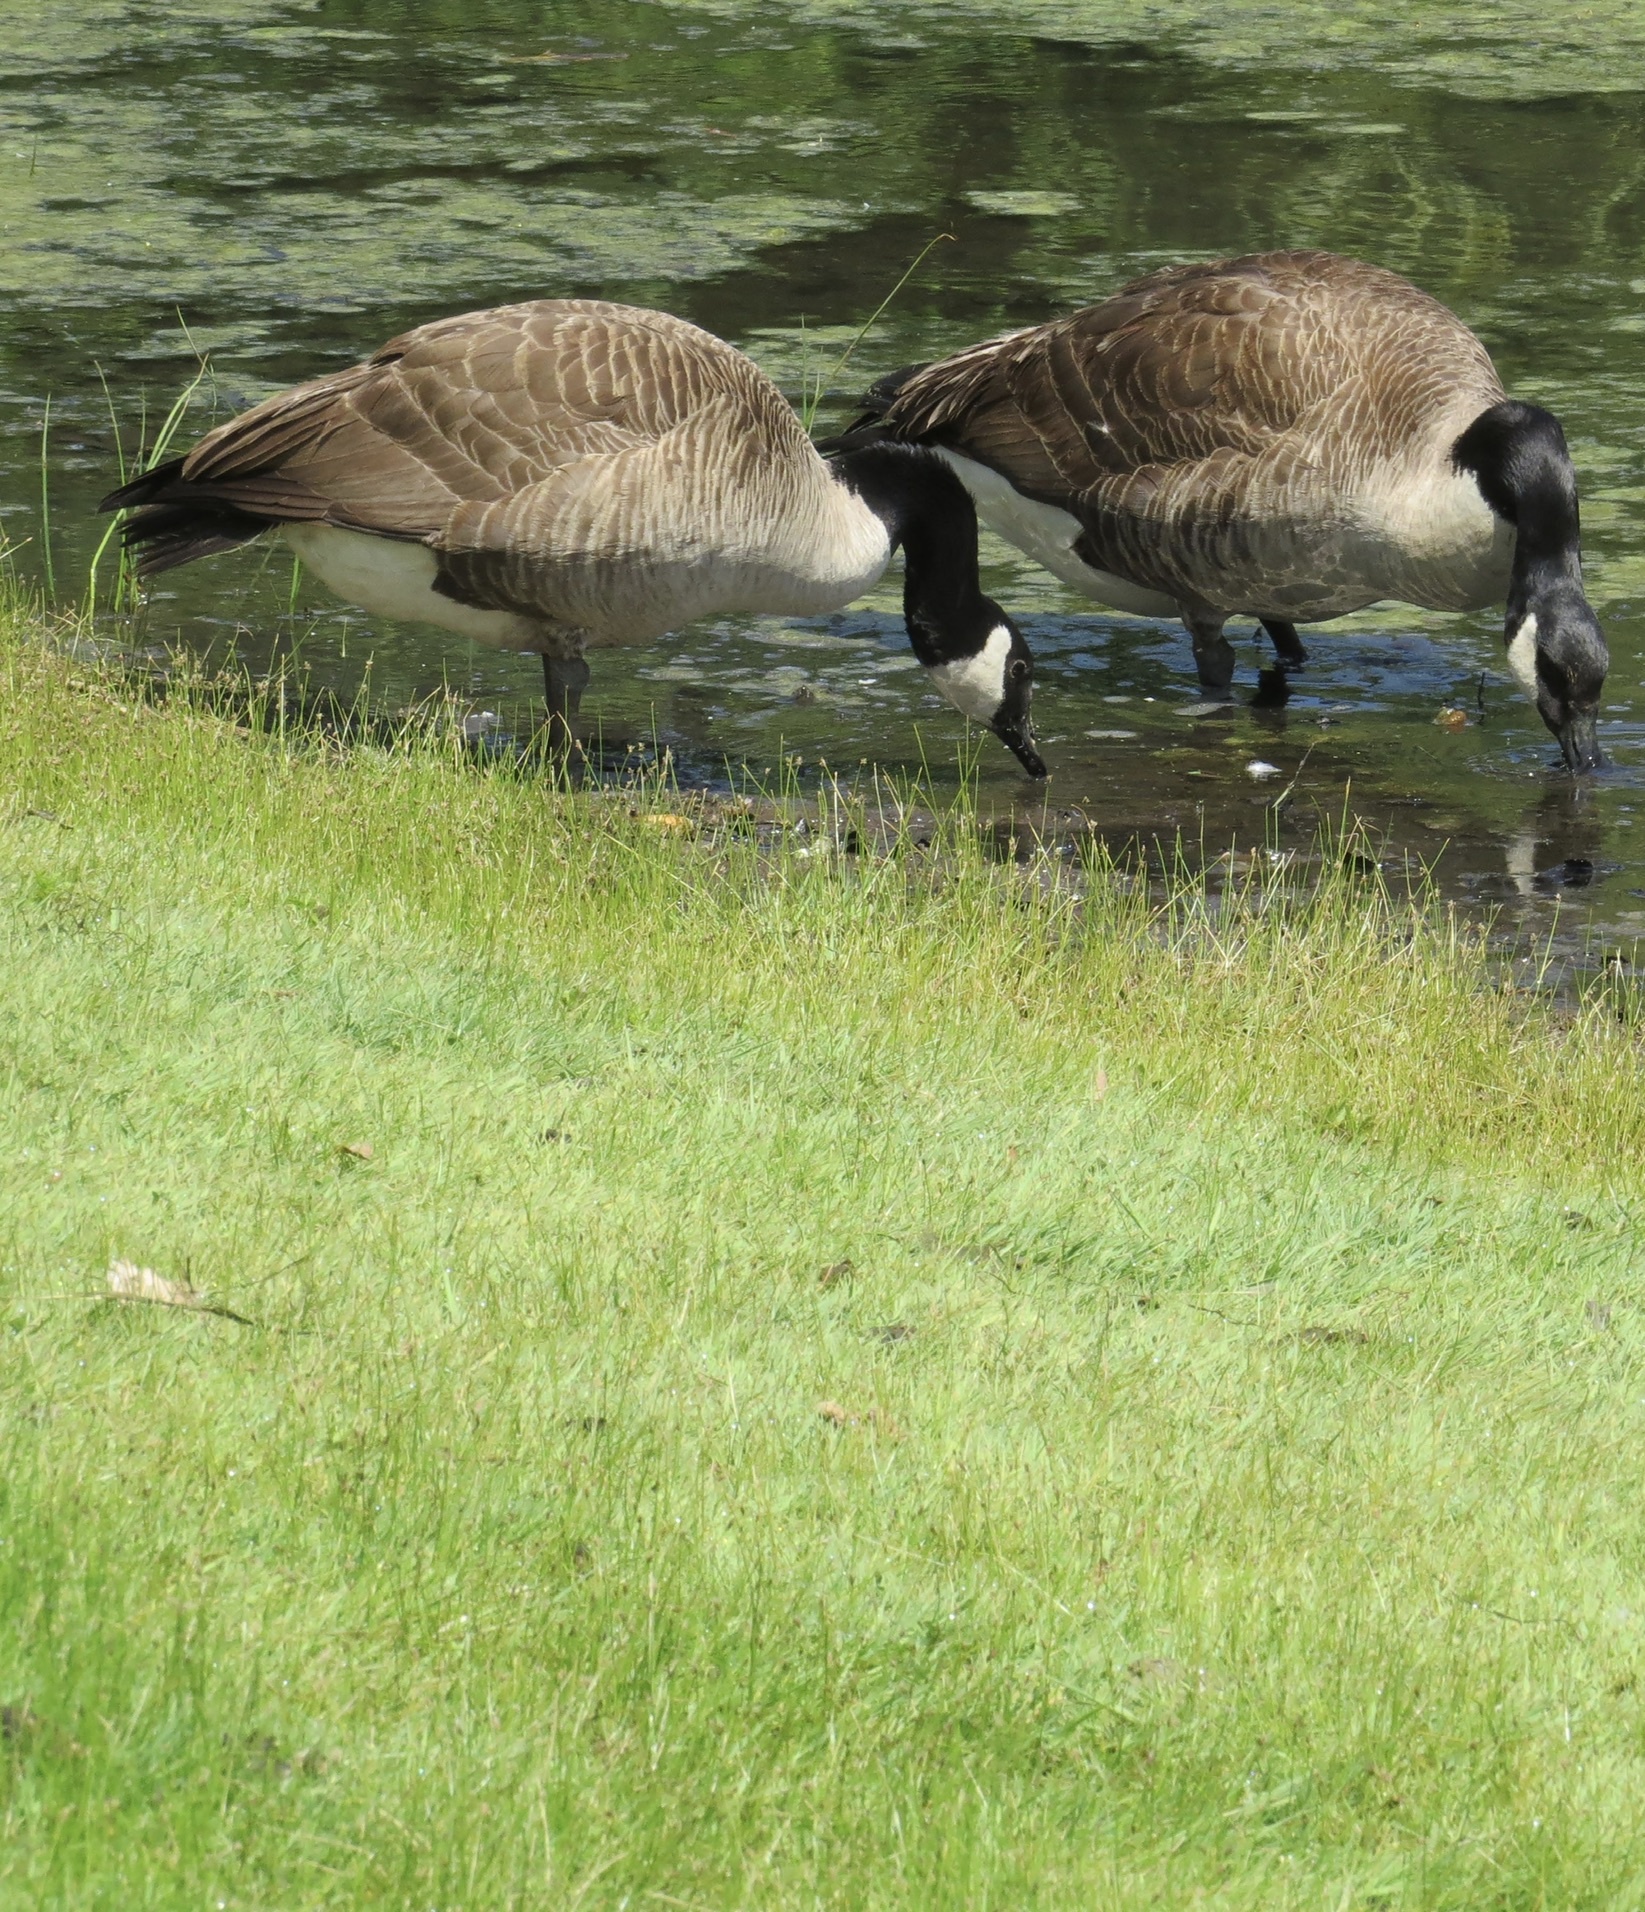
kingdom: Animalia
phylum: Chordata
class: Aves
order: Anseriformes
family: Anatidae
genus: Branta
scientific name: Branta canadensis
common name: Canada goose
